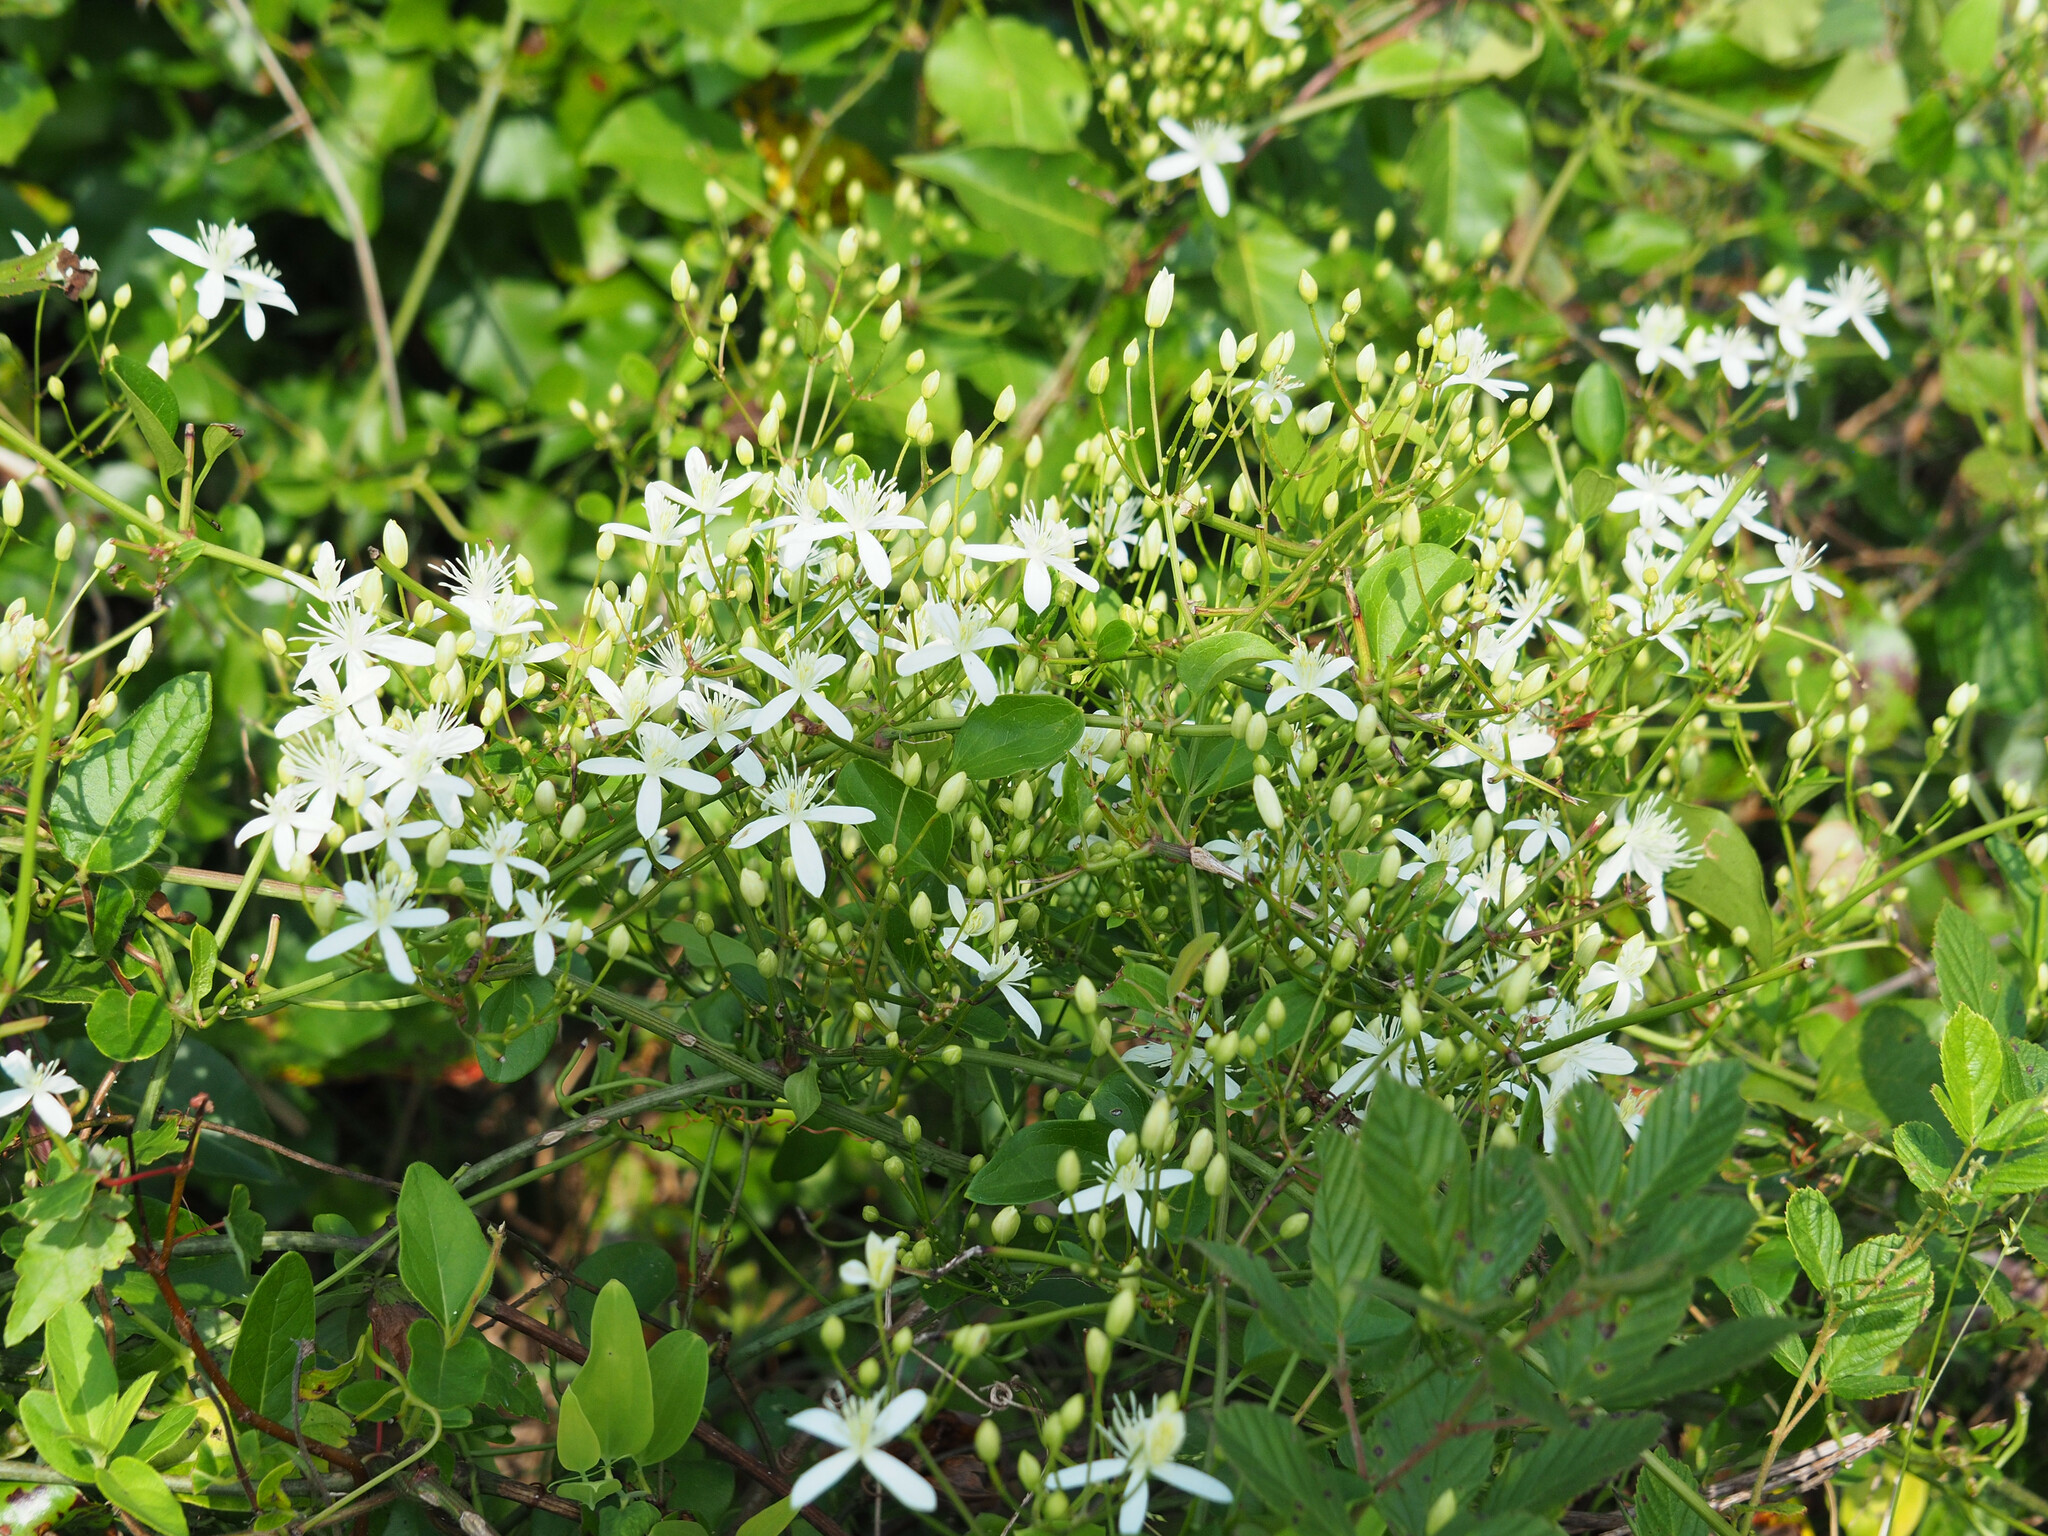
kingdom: Plantae
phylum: Tracheophyta
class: Magnoliopsida
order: Ranunculales
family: Ranunculaceae
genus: Clematis
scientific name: Clematis terniflora
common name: Sweet autumn clematis
